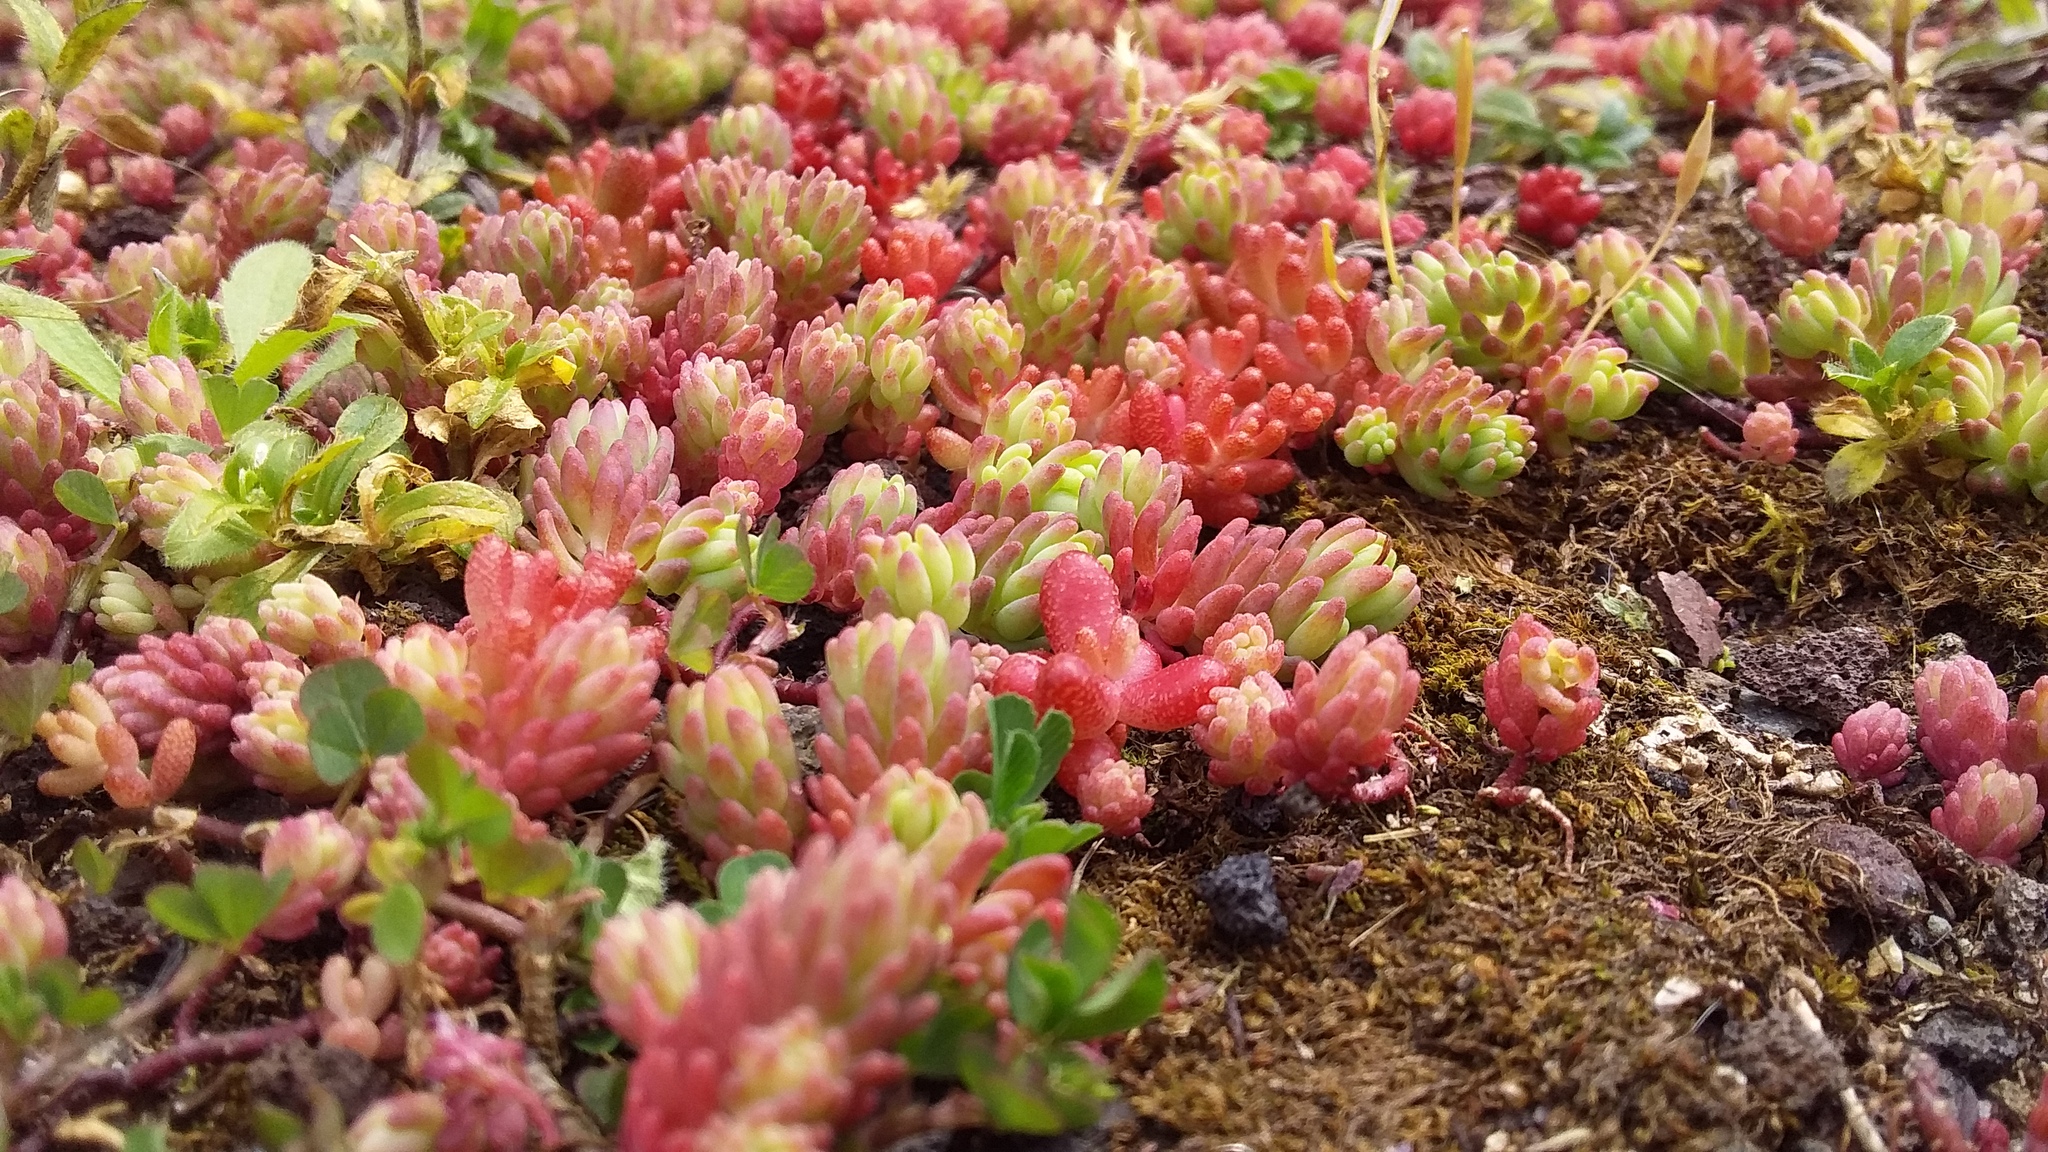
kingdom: Plantae
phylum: Tracheophyta
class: Magnoliopsida
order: Saxifragales
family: Crassulaceae
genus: Sedum
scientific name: Sedum pallidum
